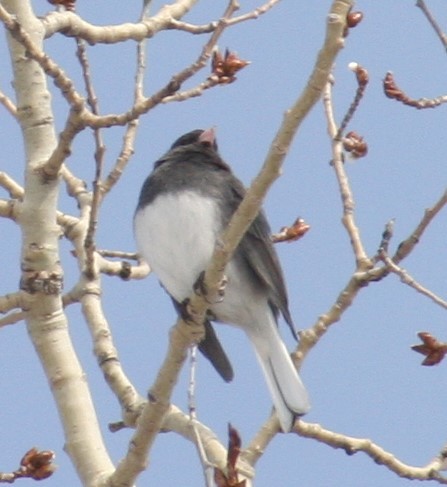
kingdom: Animalia
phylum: Chordata
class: Aves
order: Passeriformes
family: Passerellidae
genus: Junco
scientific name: Junco hyemalis
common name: Dark-eyed junco
